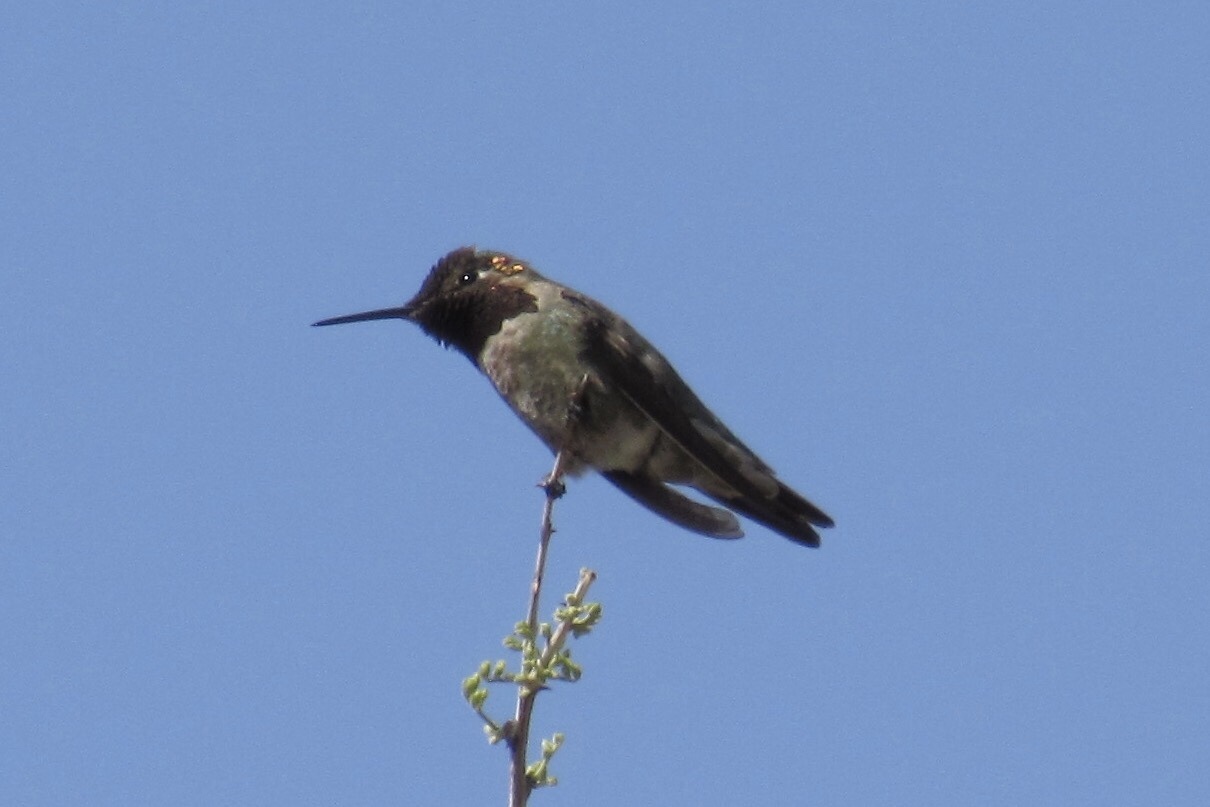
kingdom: Animalia
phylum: Chordata
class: Aves
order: Apodiformes
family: Trochilidae
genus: Calypte
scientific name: Calypte anna
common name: Anna's hummingbird
